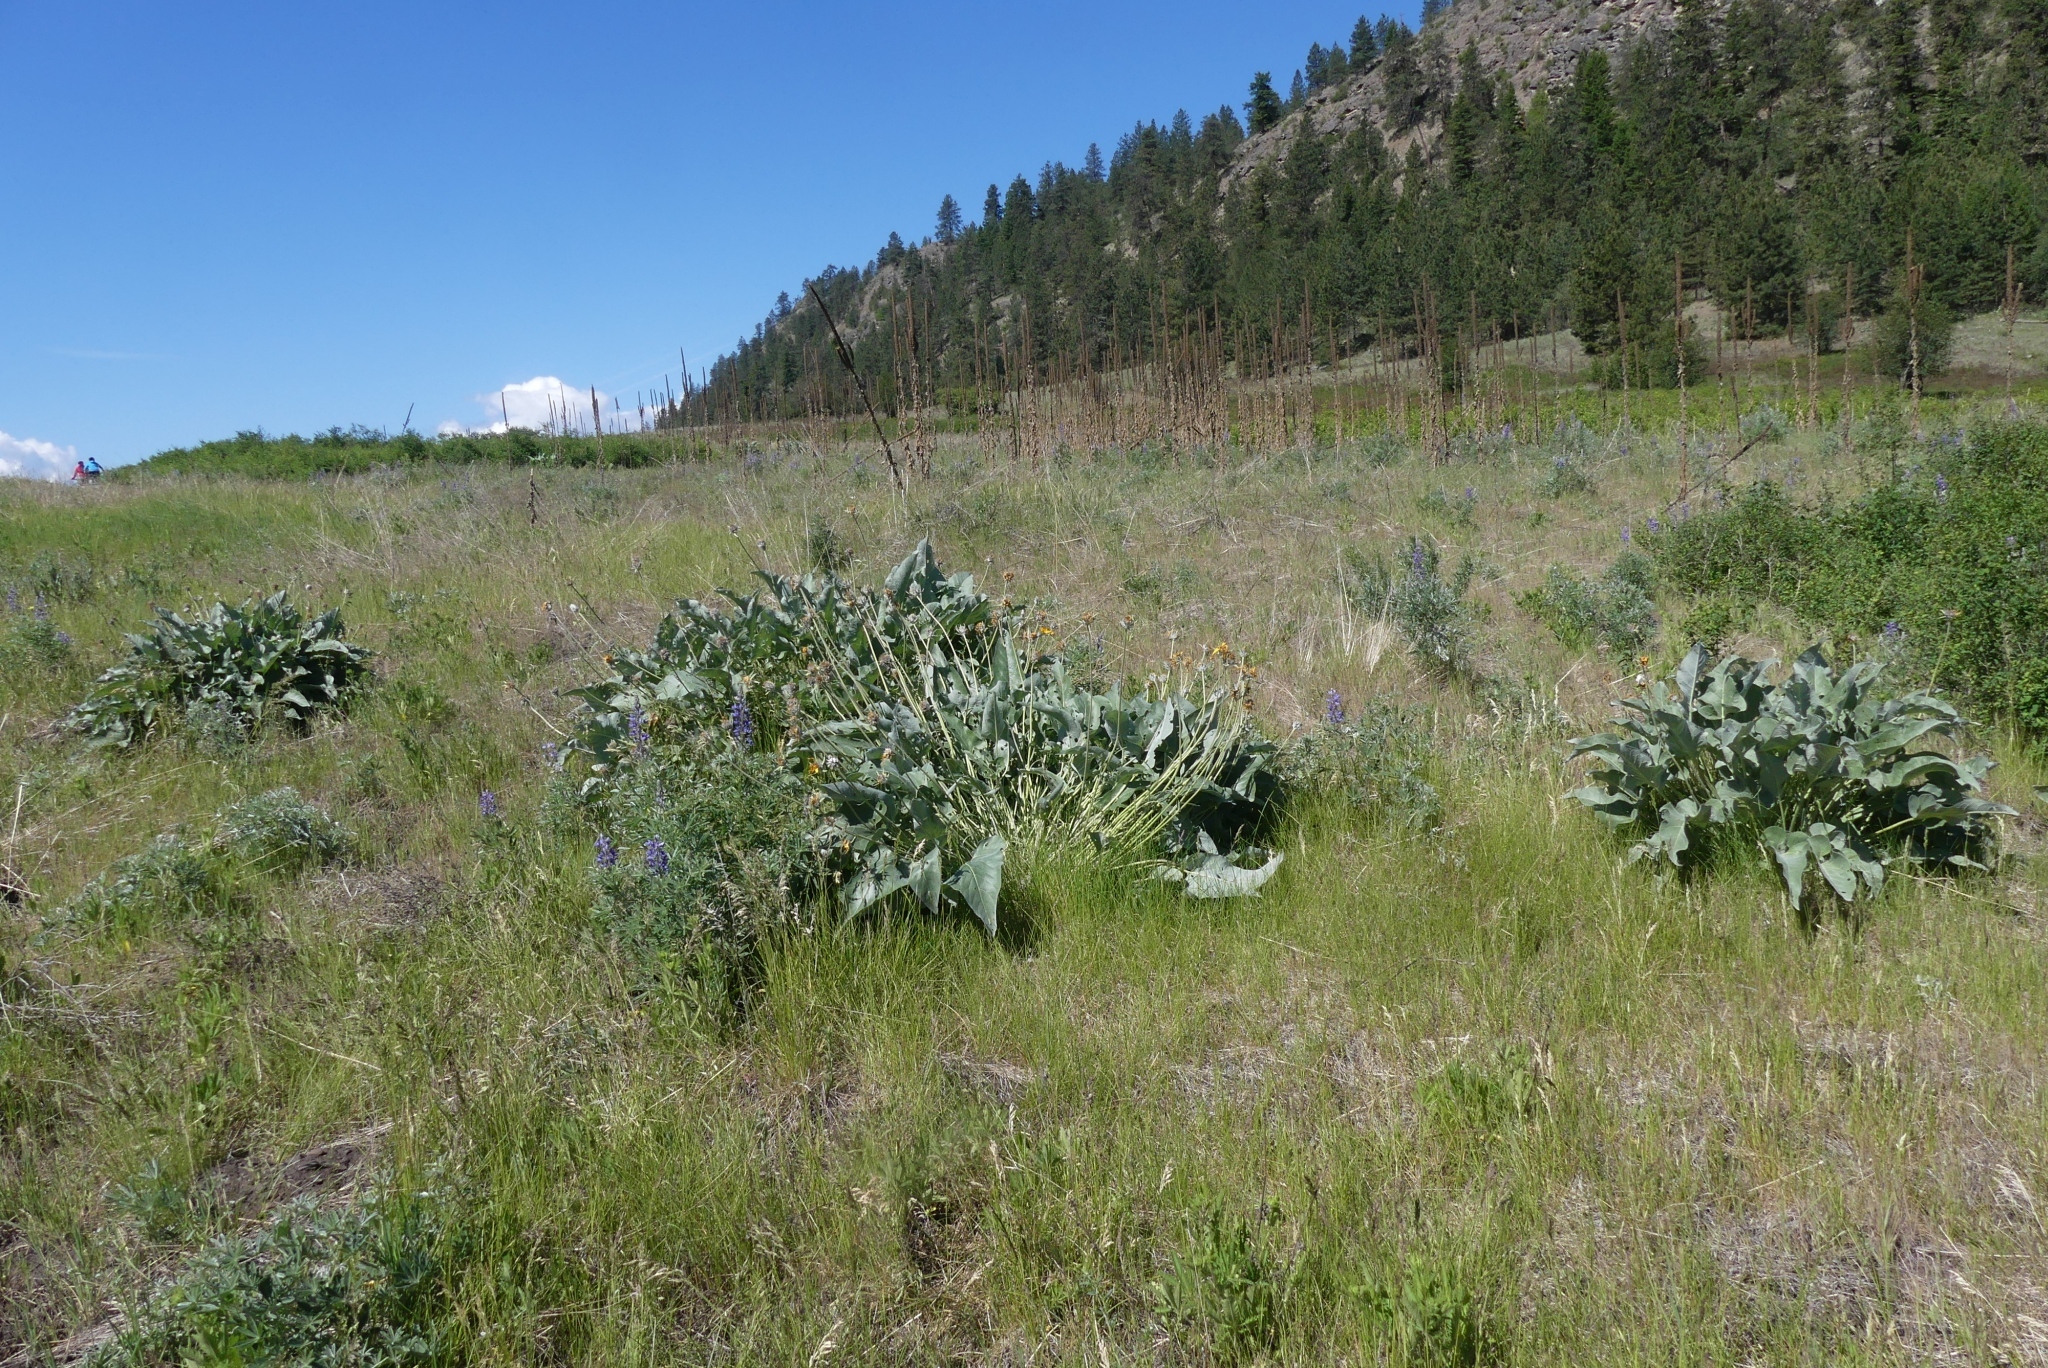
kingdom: Plantae
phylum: Tracheophyta
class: Magnoliopsida
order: Asterales
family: Asteraceae
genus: Wyethia
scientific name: Wyethia sagittata
